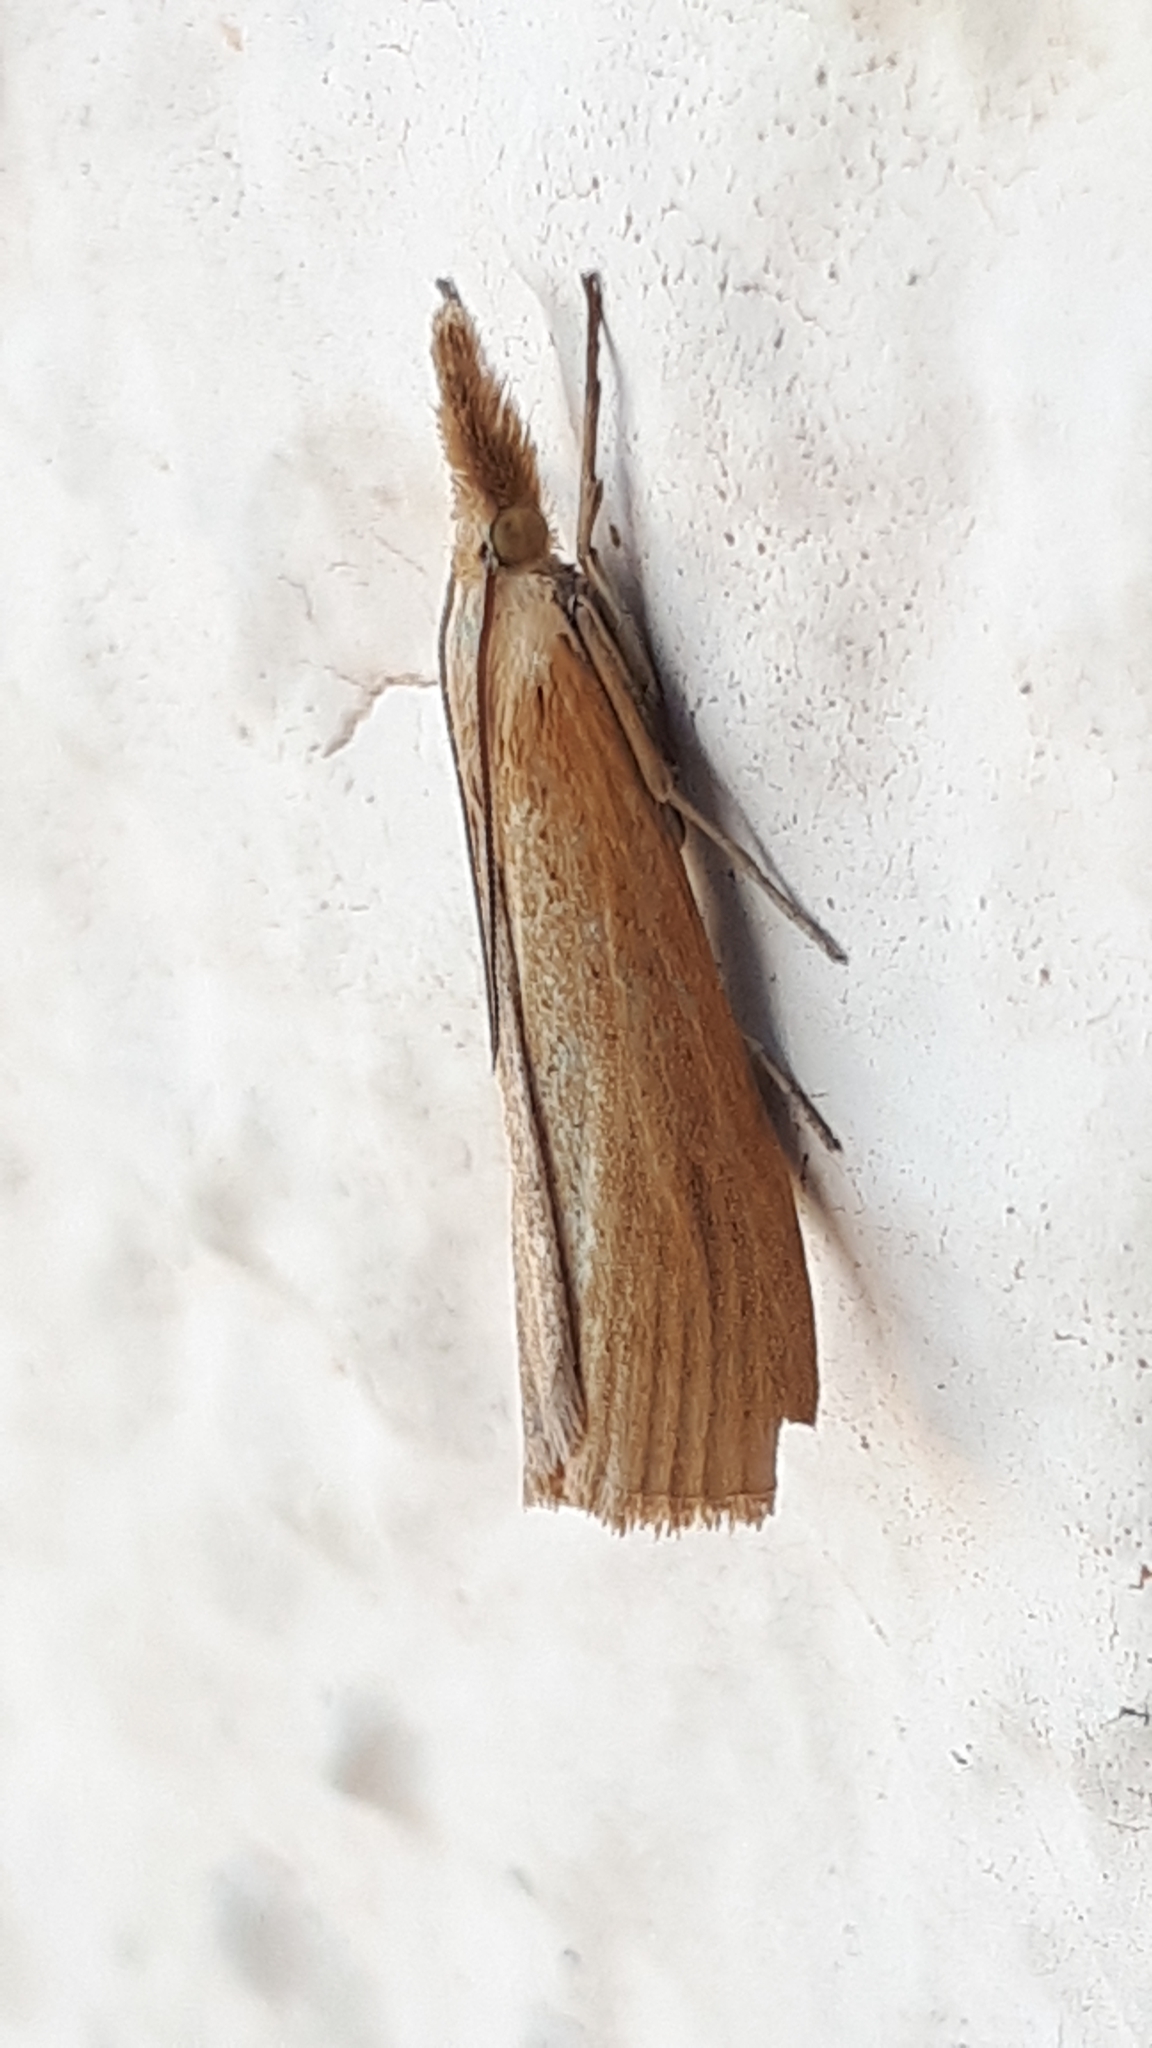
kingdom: Animalia
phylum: Arthropoda
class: Insecta
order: Lepidoptera
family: Crambidae
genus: Pediasia
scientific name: Pediasia luteella
